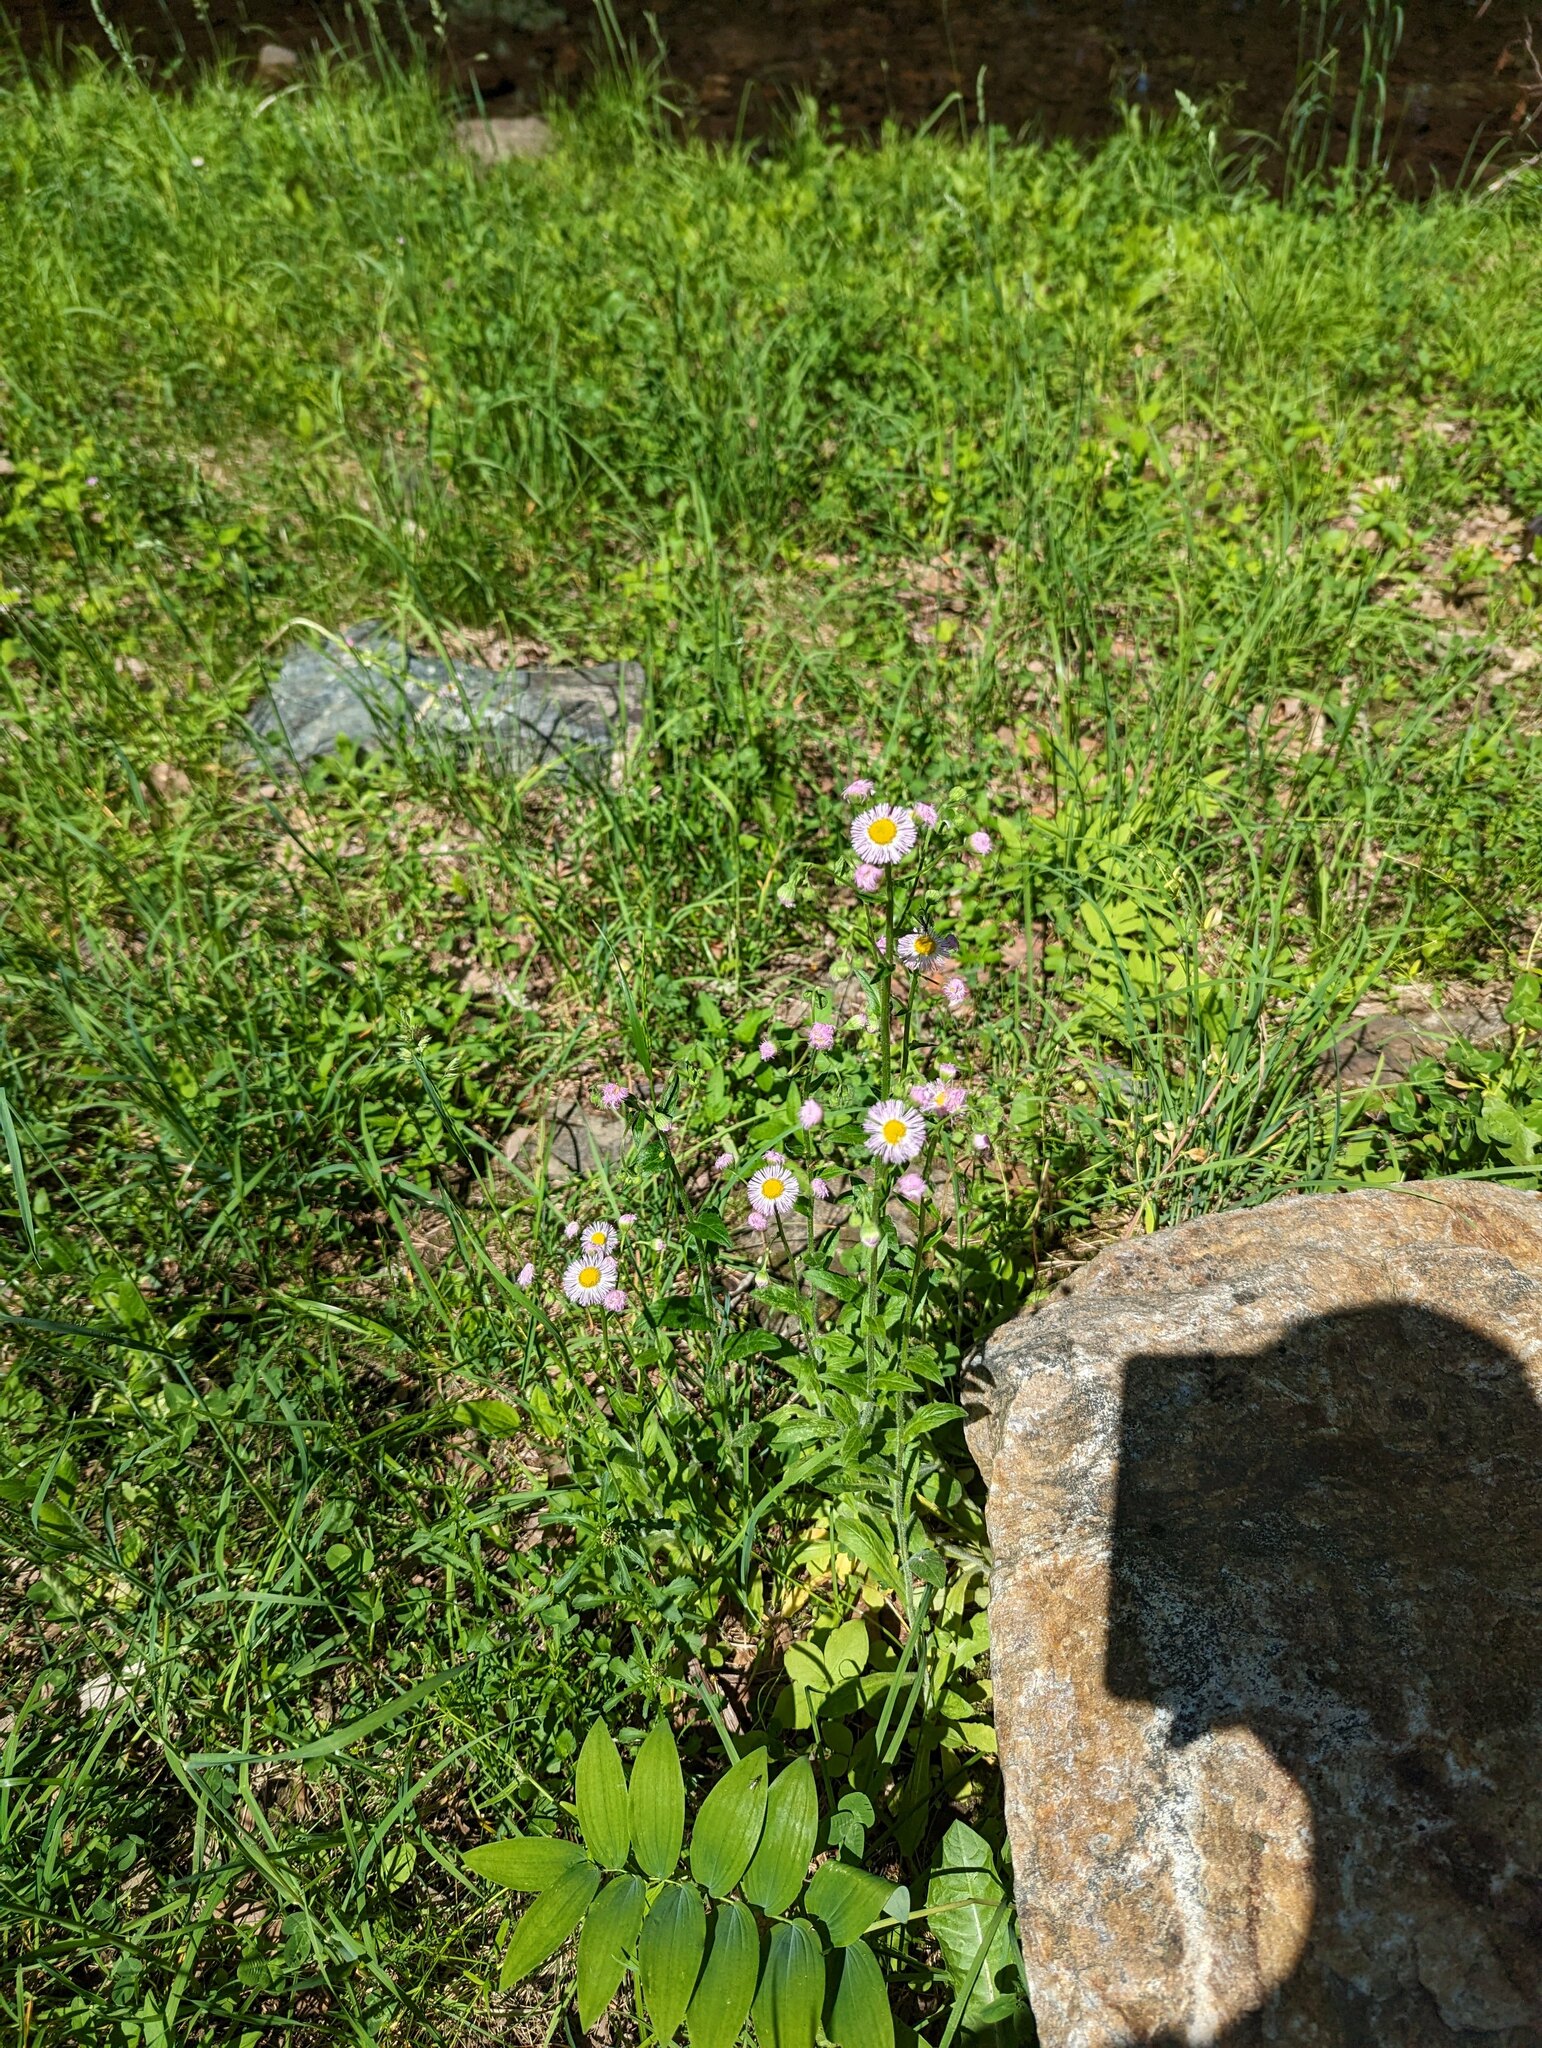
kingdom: Plantae
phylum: Tracheophyta
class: Magnoliopsida
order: Asterales
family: Asteraceae
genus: Erigeron
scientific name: Erigeron philadelphicus
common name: Robin's-plantain
